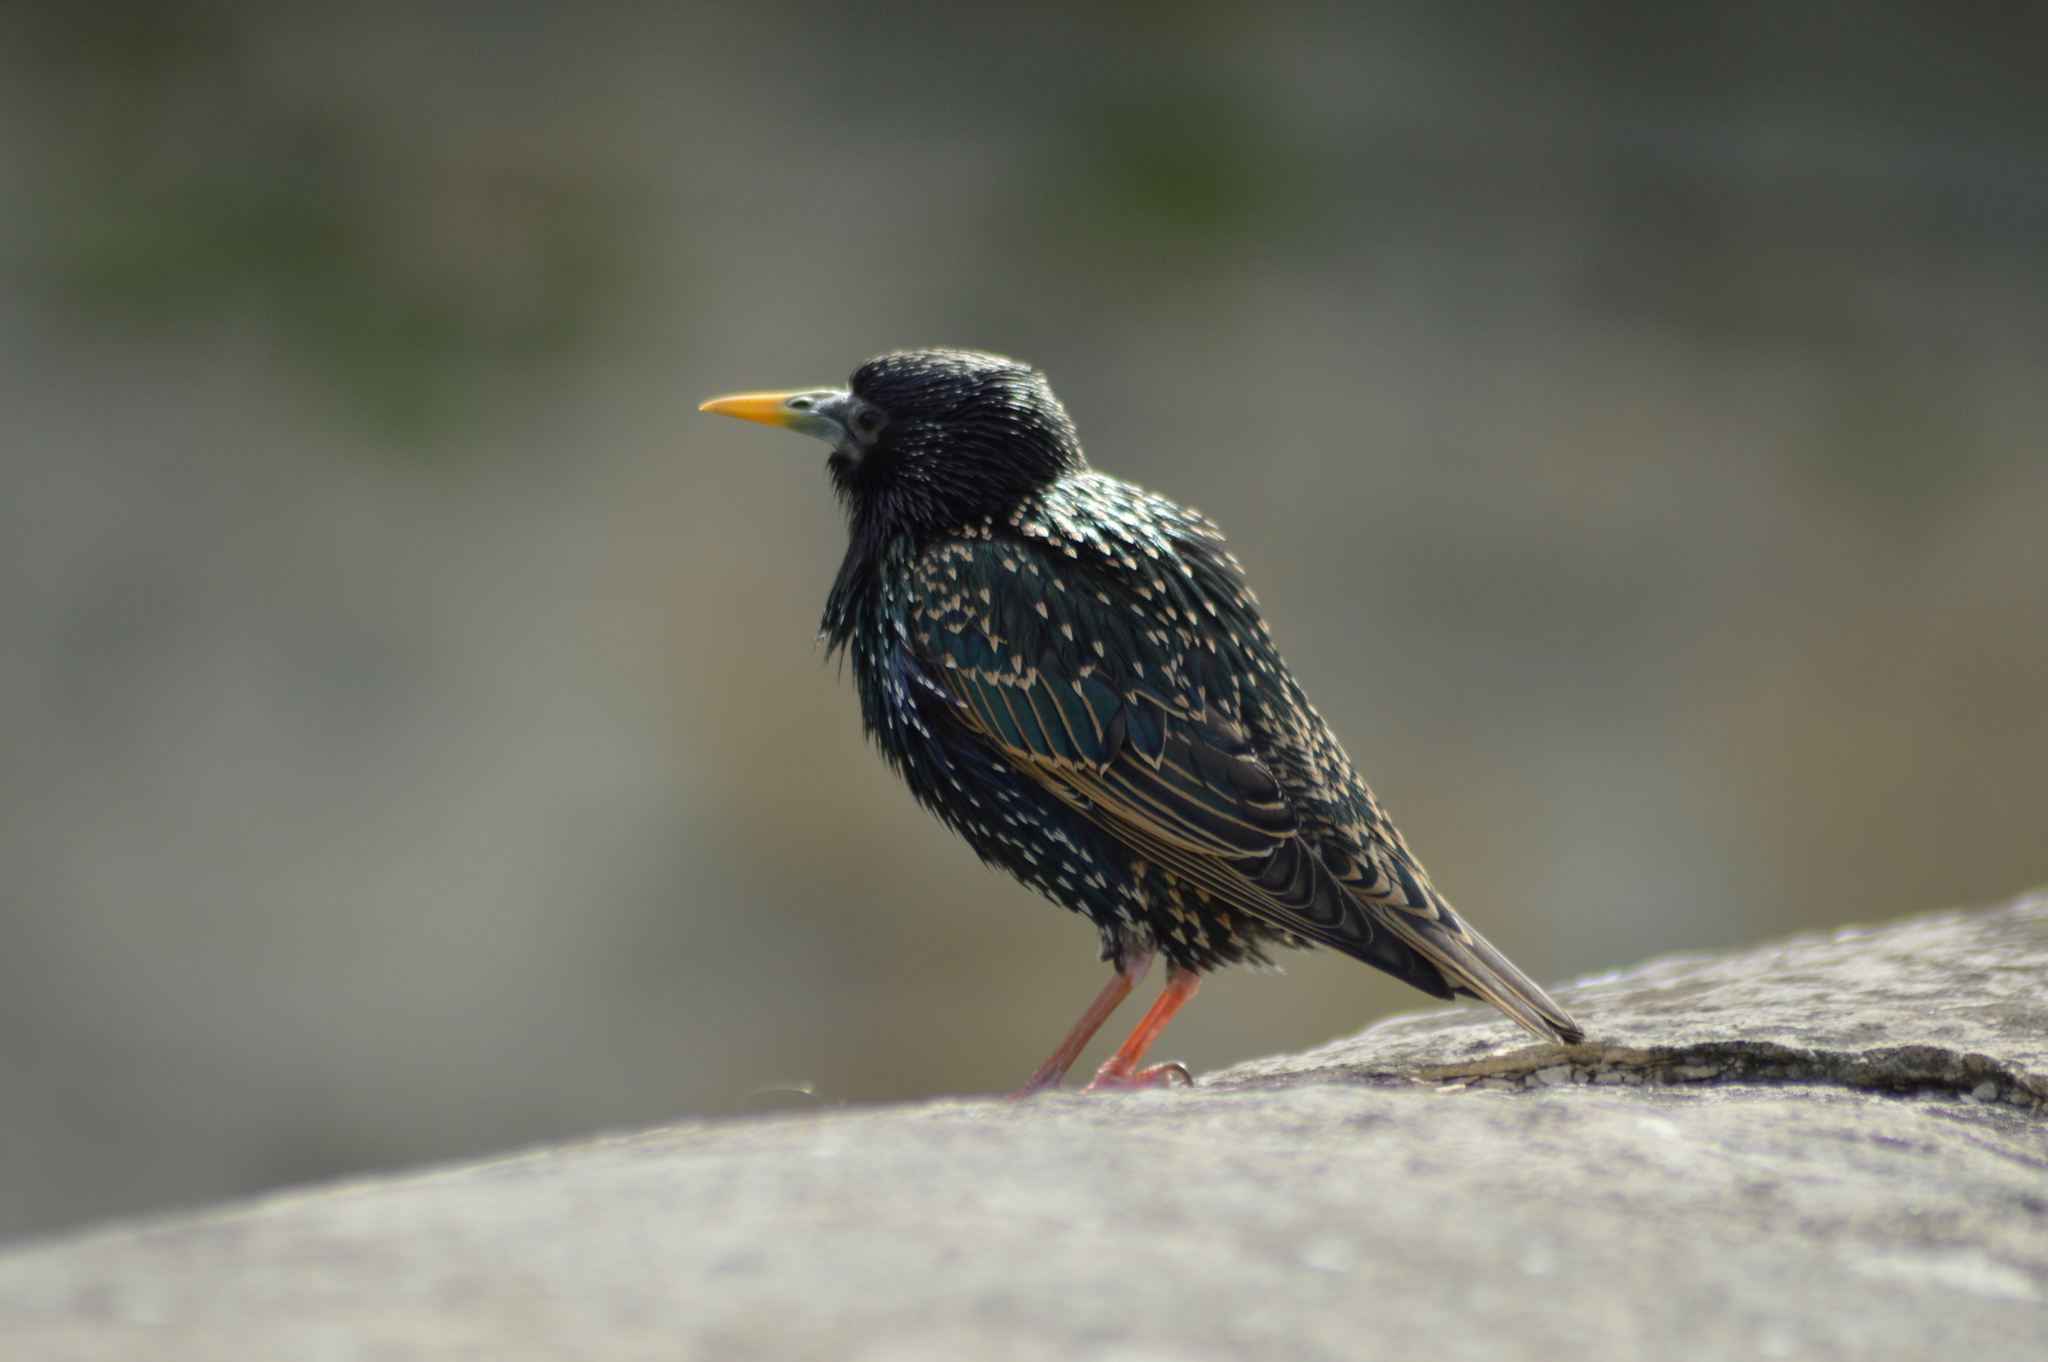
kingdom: Animalia
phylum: Chordata
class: Aves
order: Passeriformes
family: Sturnidae
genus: Sturnus
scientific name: Sturnus vulgaris
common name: Common starling
